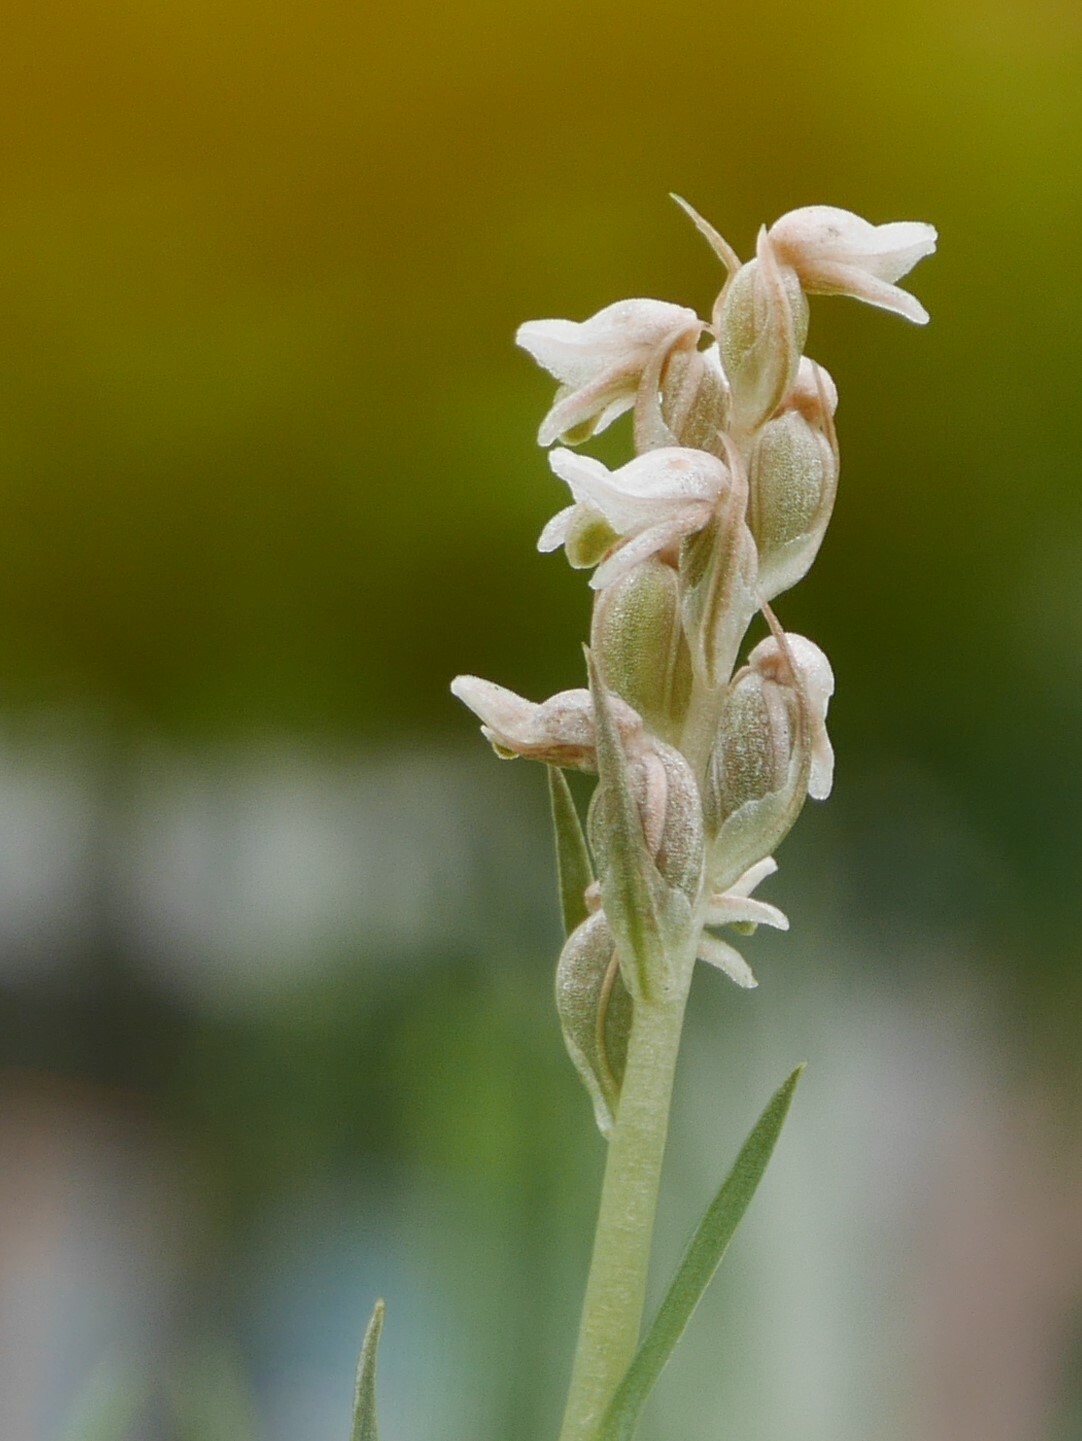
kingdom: Plantae
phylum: Tracheophyta
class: Liliopsida
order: Asparagales
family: Orchidaceae
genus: Zeuxine
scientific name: Zeuxine strateumatica
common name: Soldier's orchid
